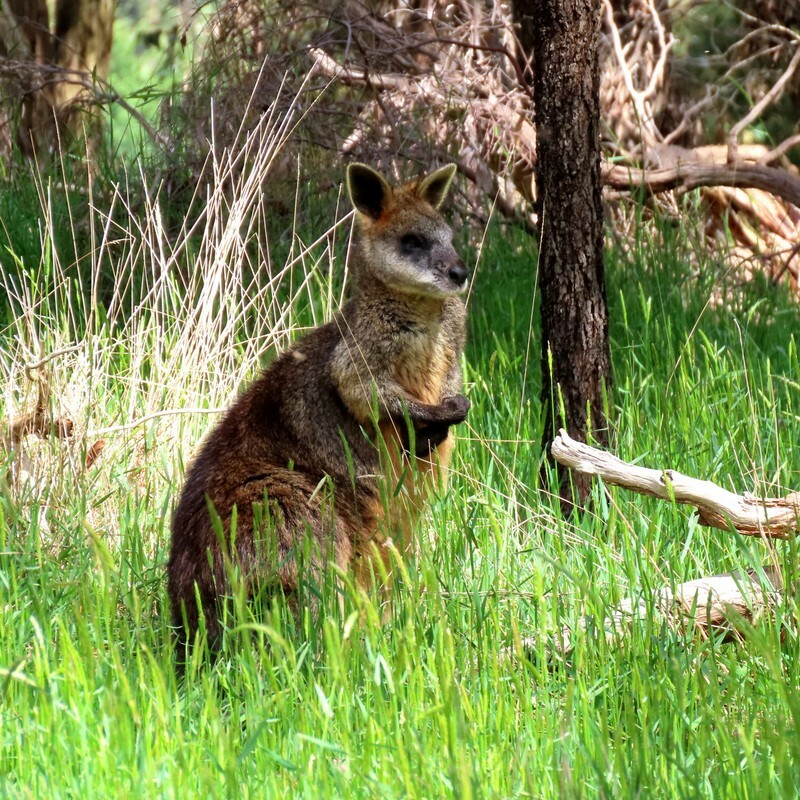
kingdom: Animalia
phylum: Chordata
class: Mammalia
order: Diprotodontia
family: Macropodidae
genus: Wallabia
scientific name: Wallabia bicolor
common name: Swamp wallaby
